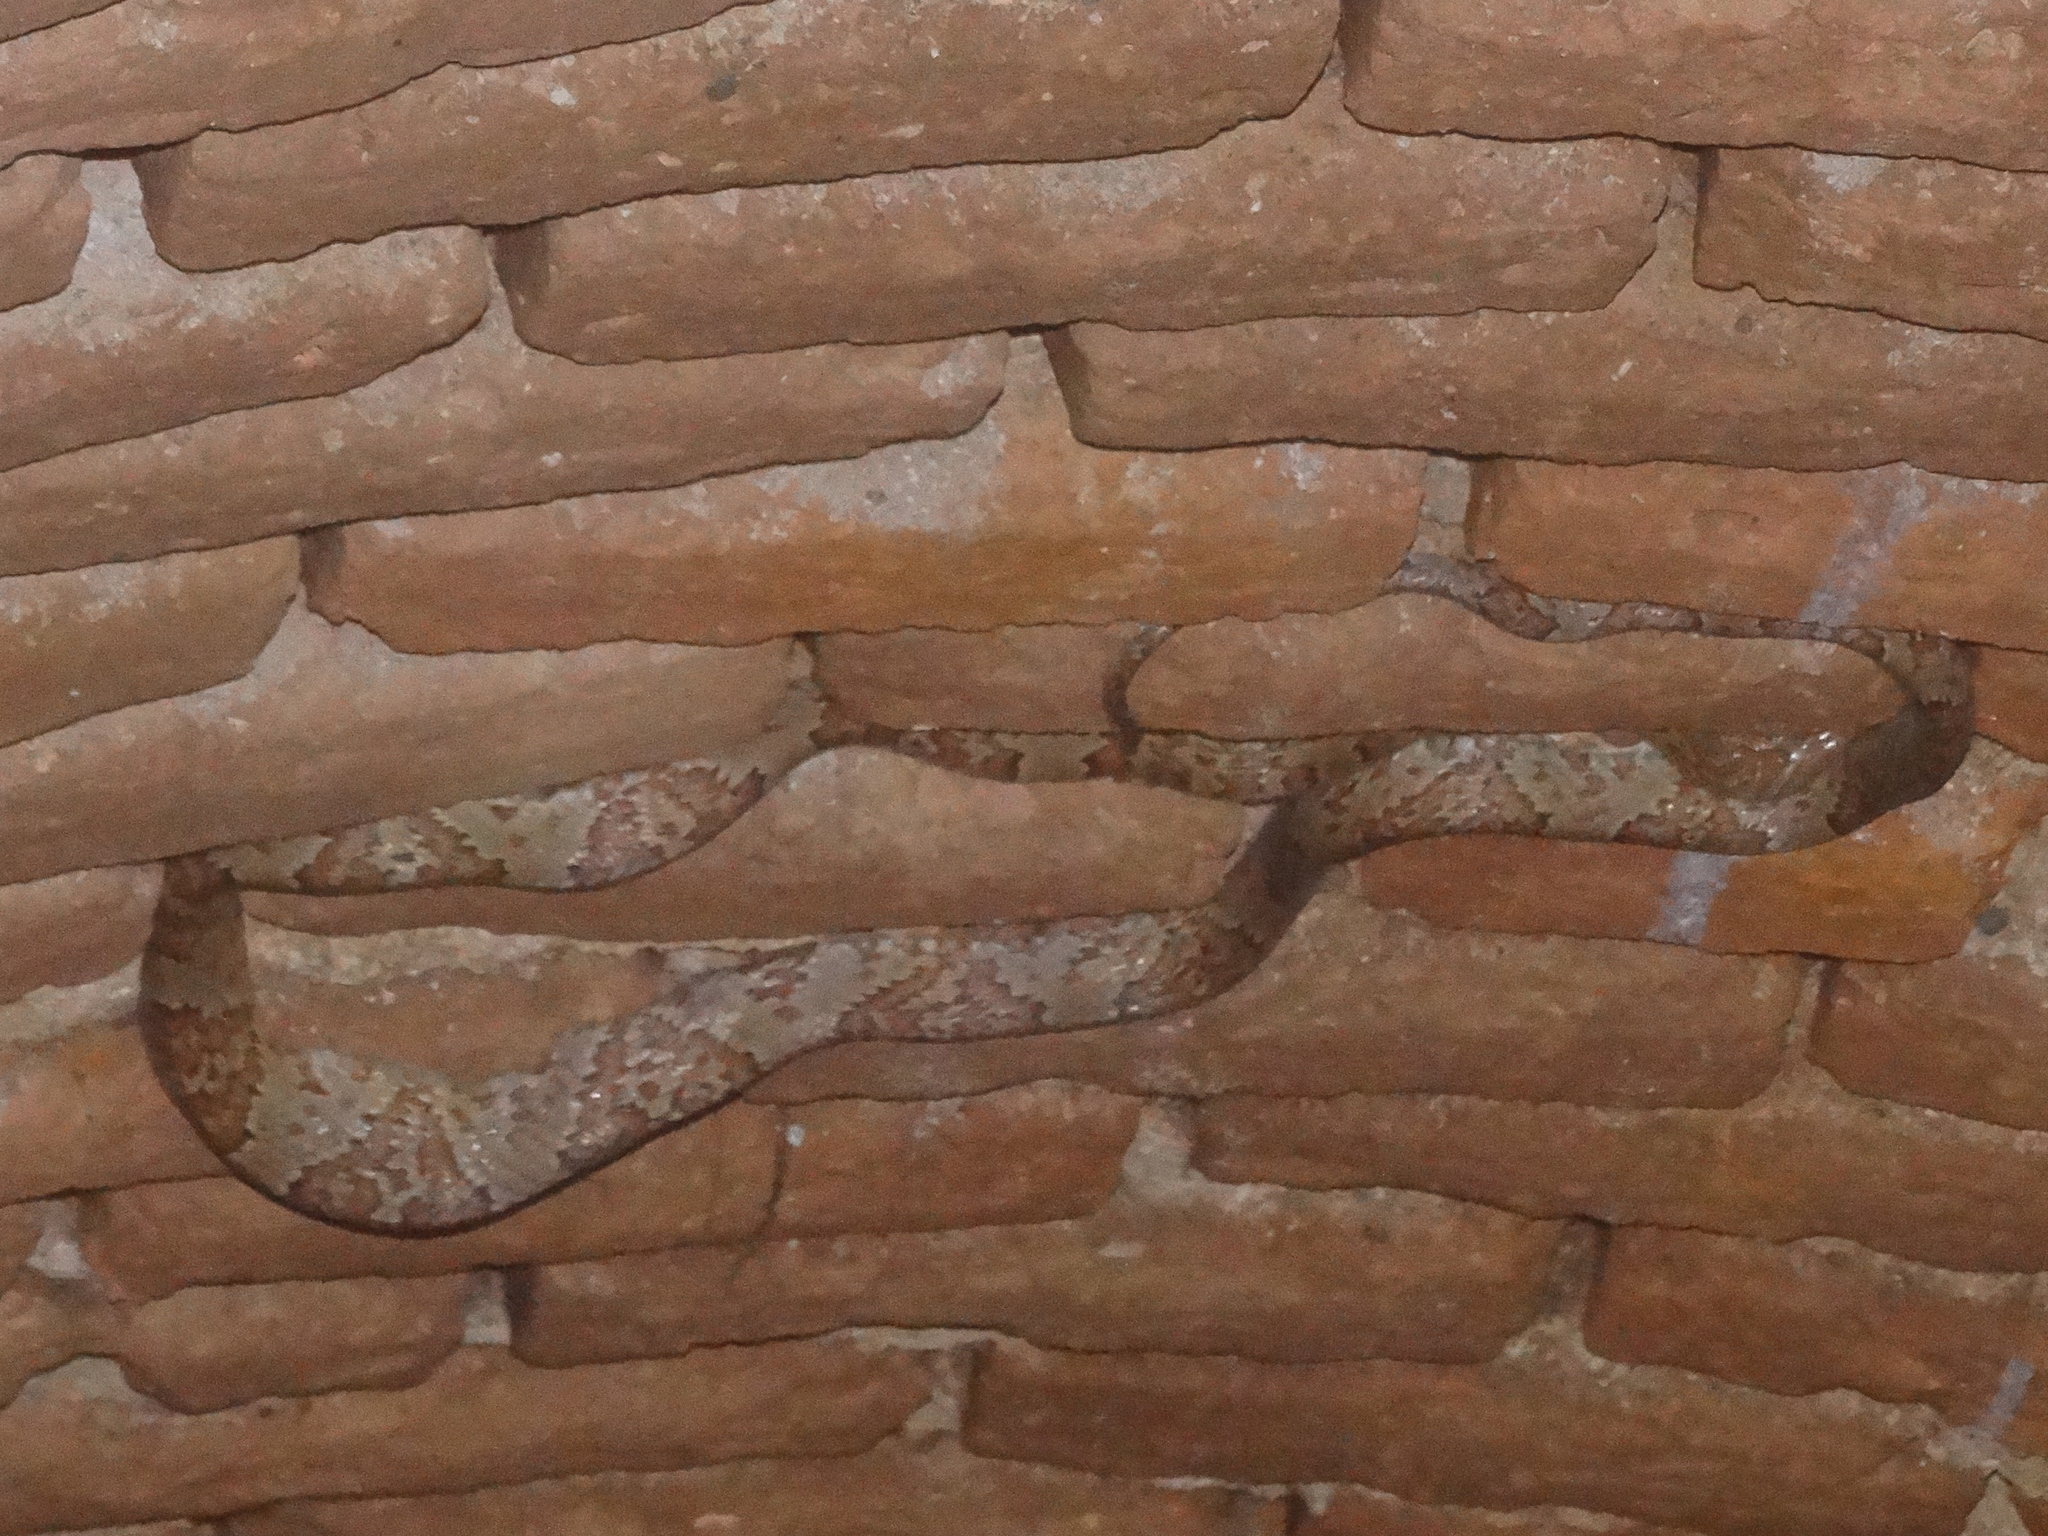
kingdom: Animalia
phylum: Chordata
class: Squamata
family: Colubridae
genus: Trimorphodon
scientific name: Trimorphodon paucimaculatus
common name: Sinaloan lyresnake
